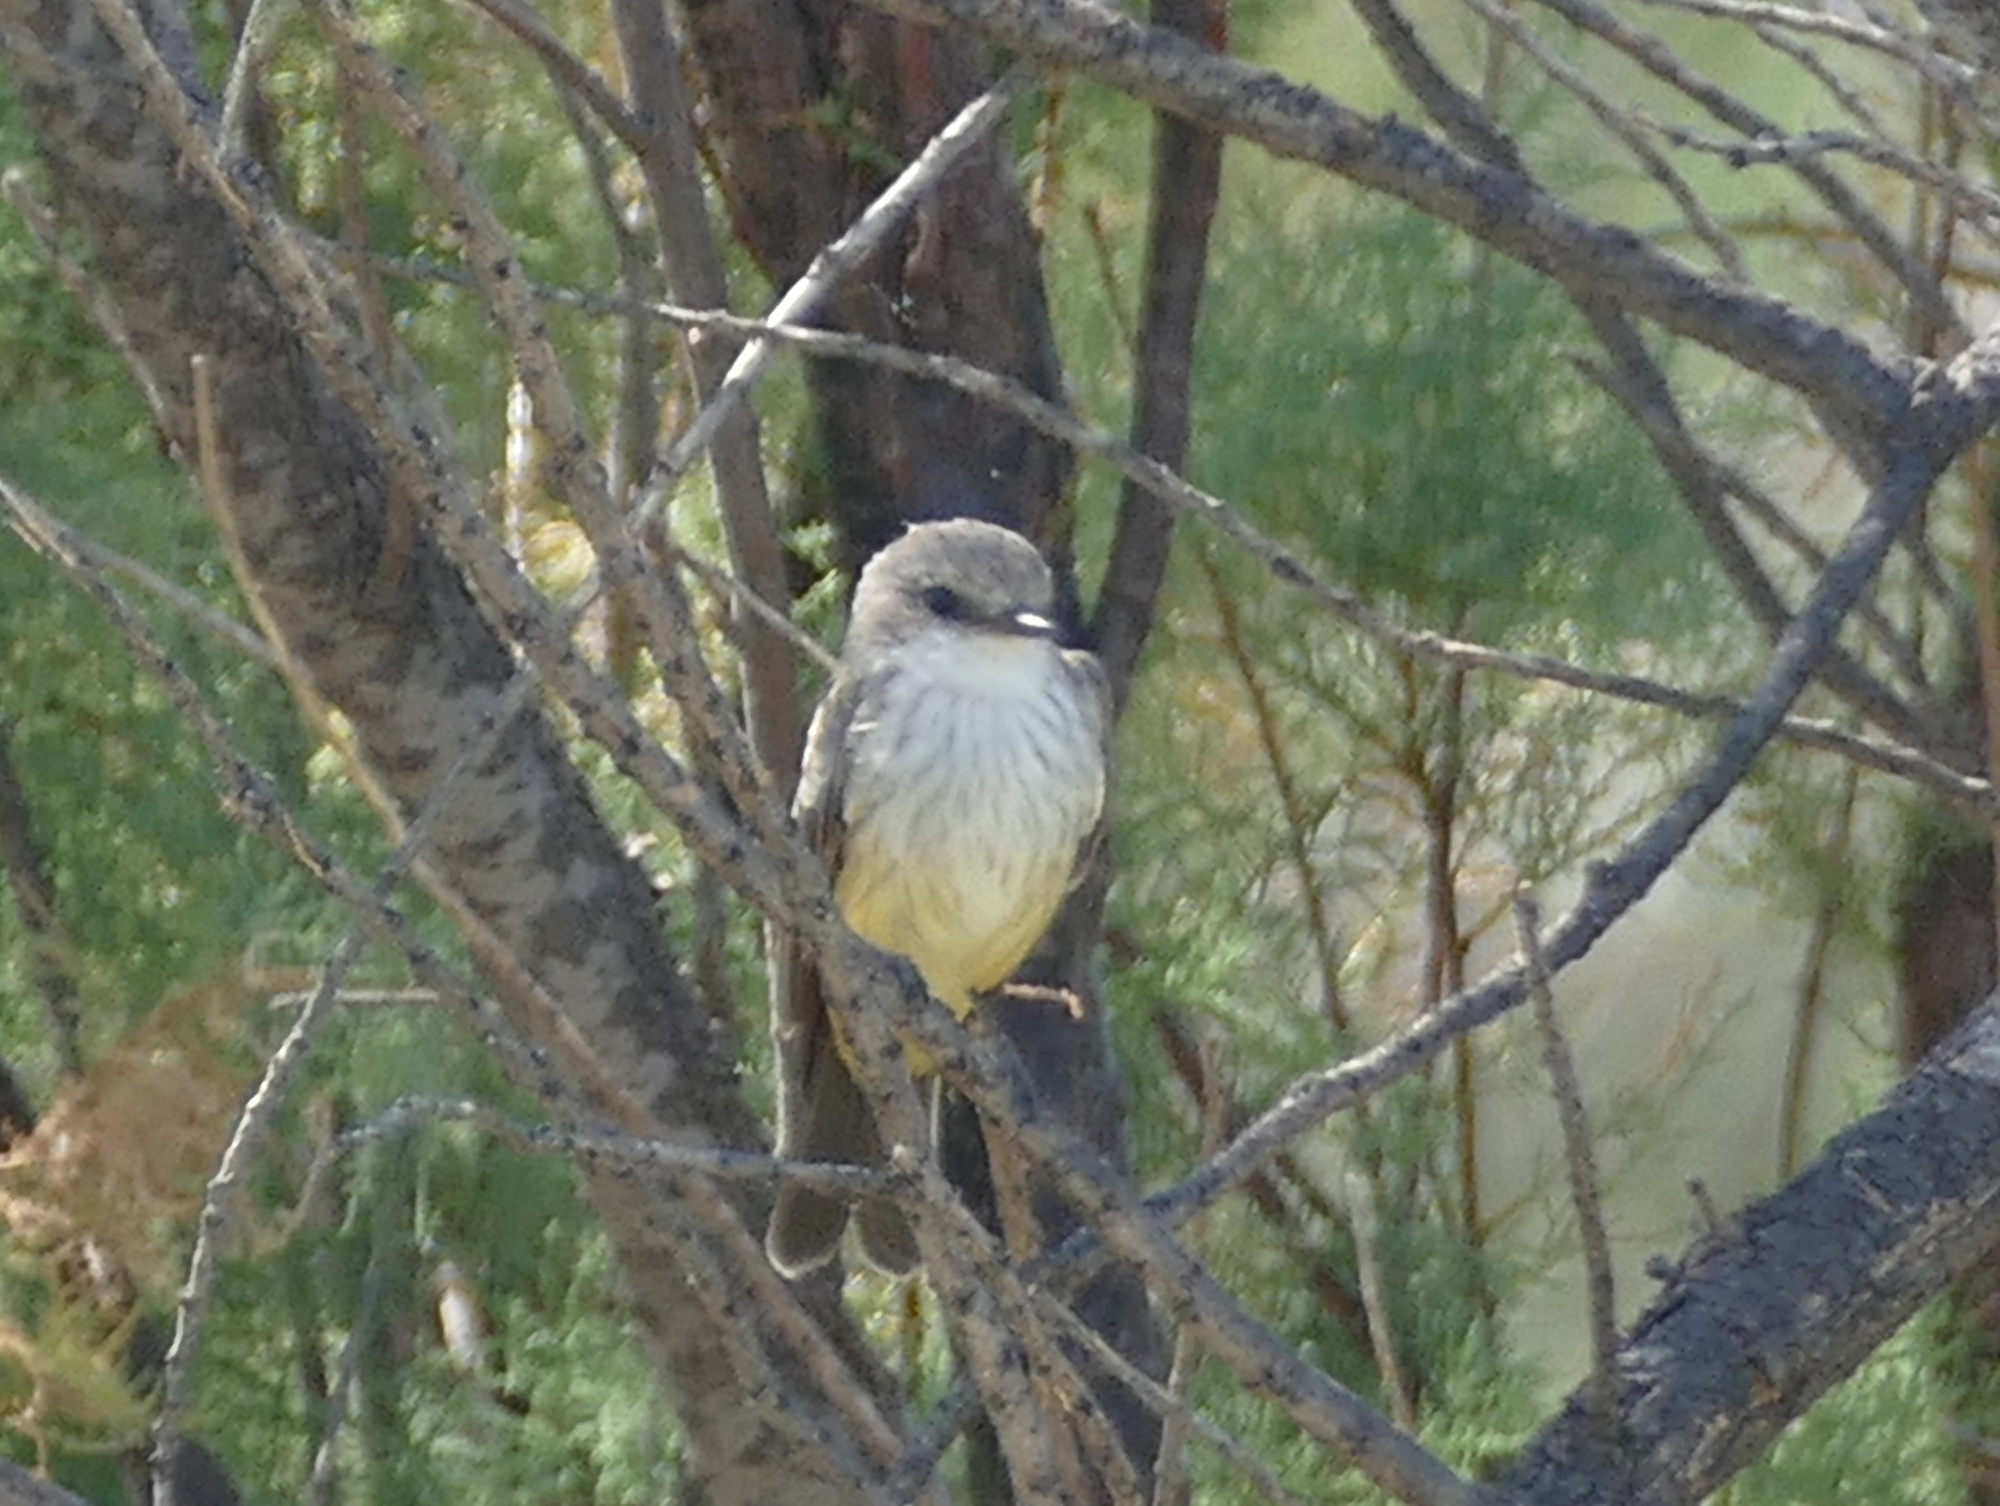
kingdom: Animalia
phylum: Chordata
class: Aves
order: Passeriformes
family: Tyrannidae
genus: Pyrocephalus
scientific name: Pyrocephalus rubinus
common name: Vermilion flycatcher
